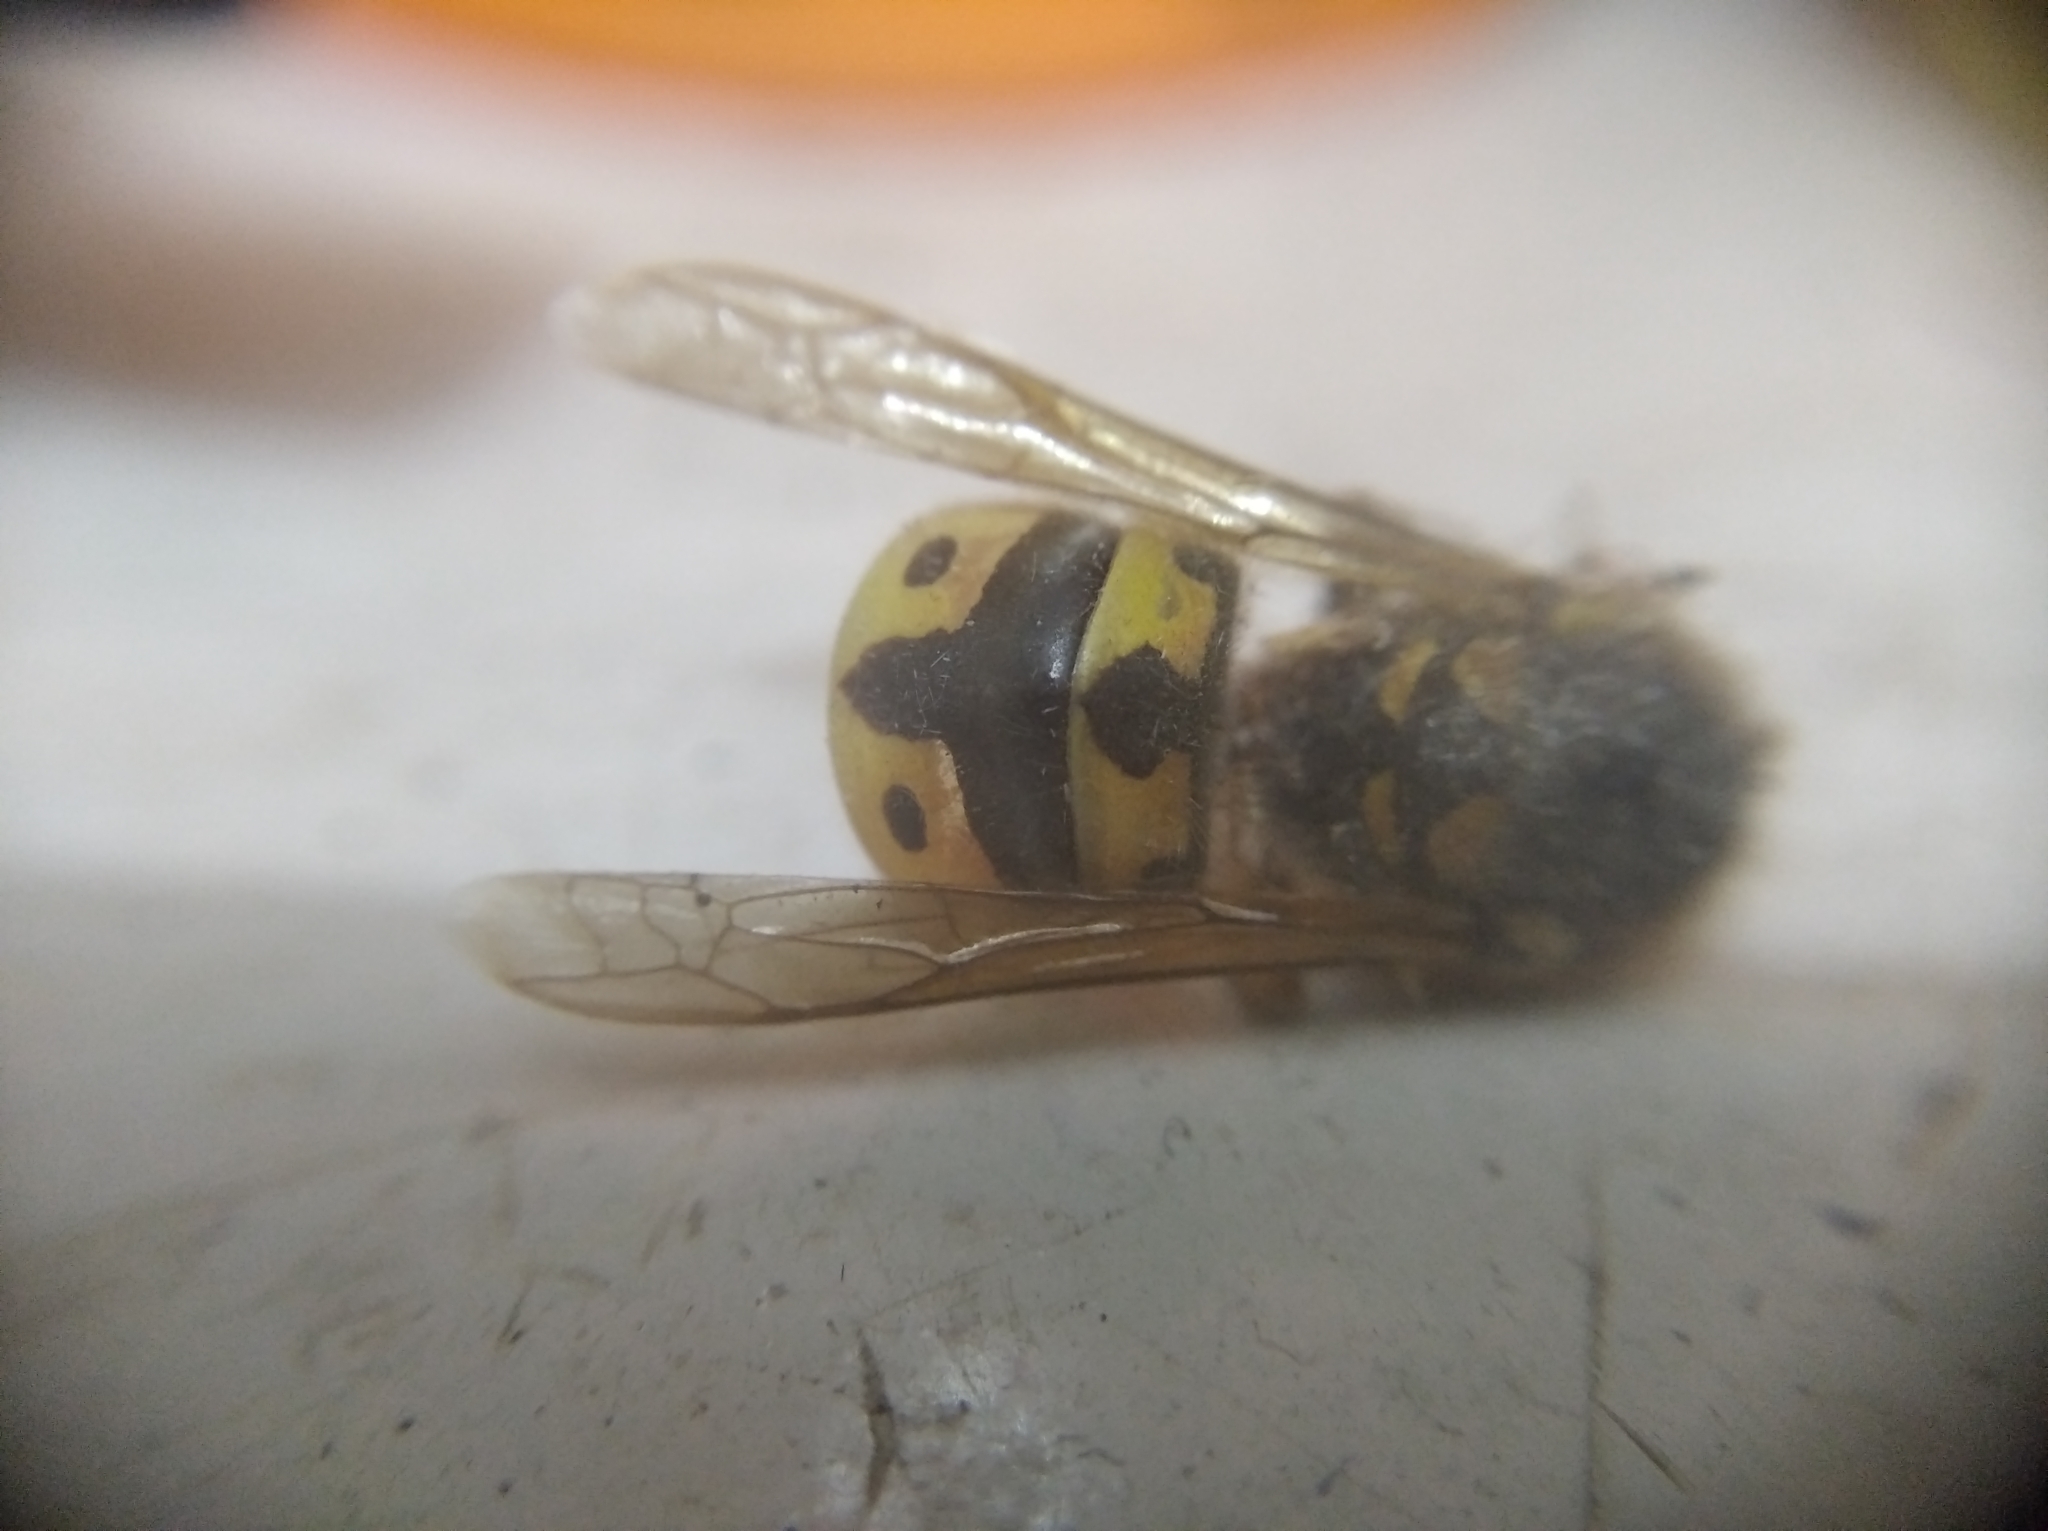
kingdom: Animalia
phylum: Arthropoda
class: Insecta
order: Hymenoptera
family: Vespidae
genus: Vespula
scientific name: Vespula germanica
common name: German wasp
